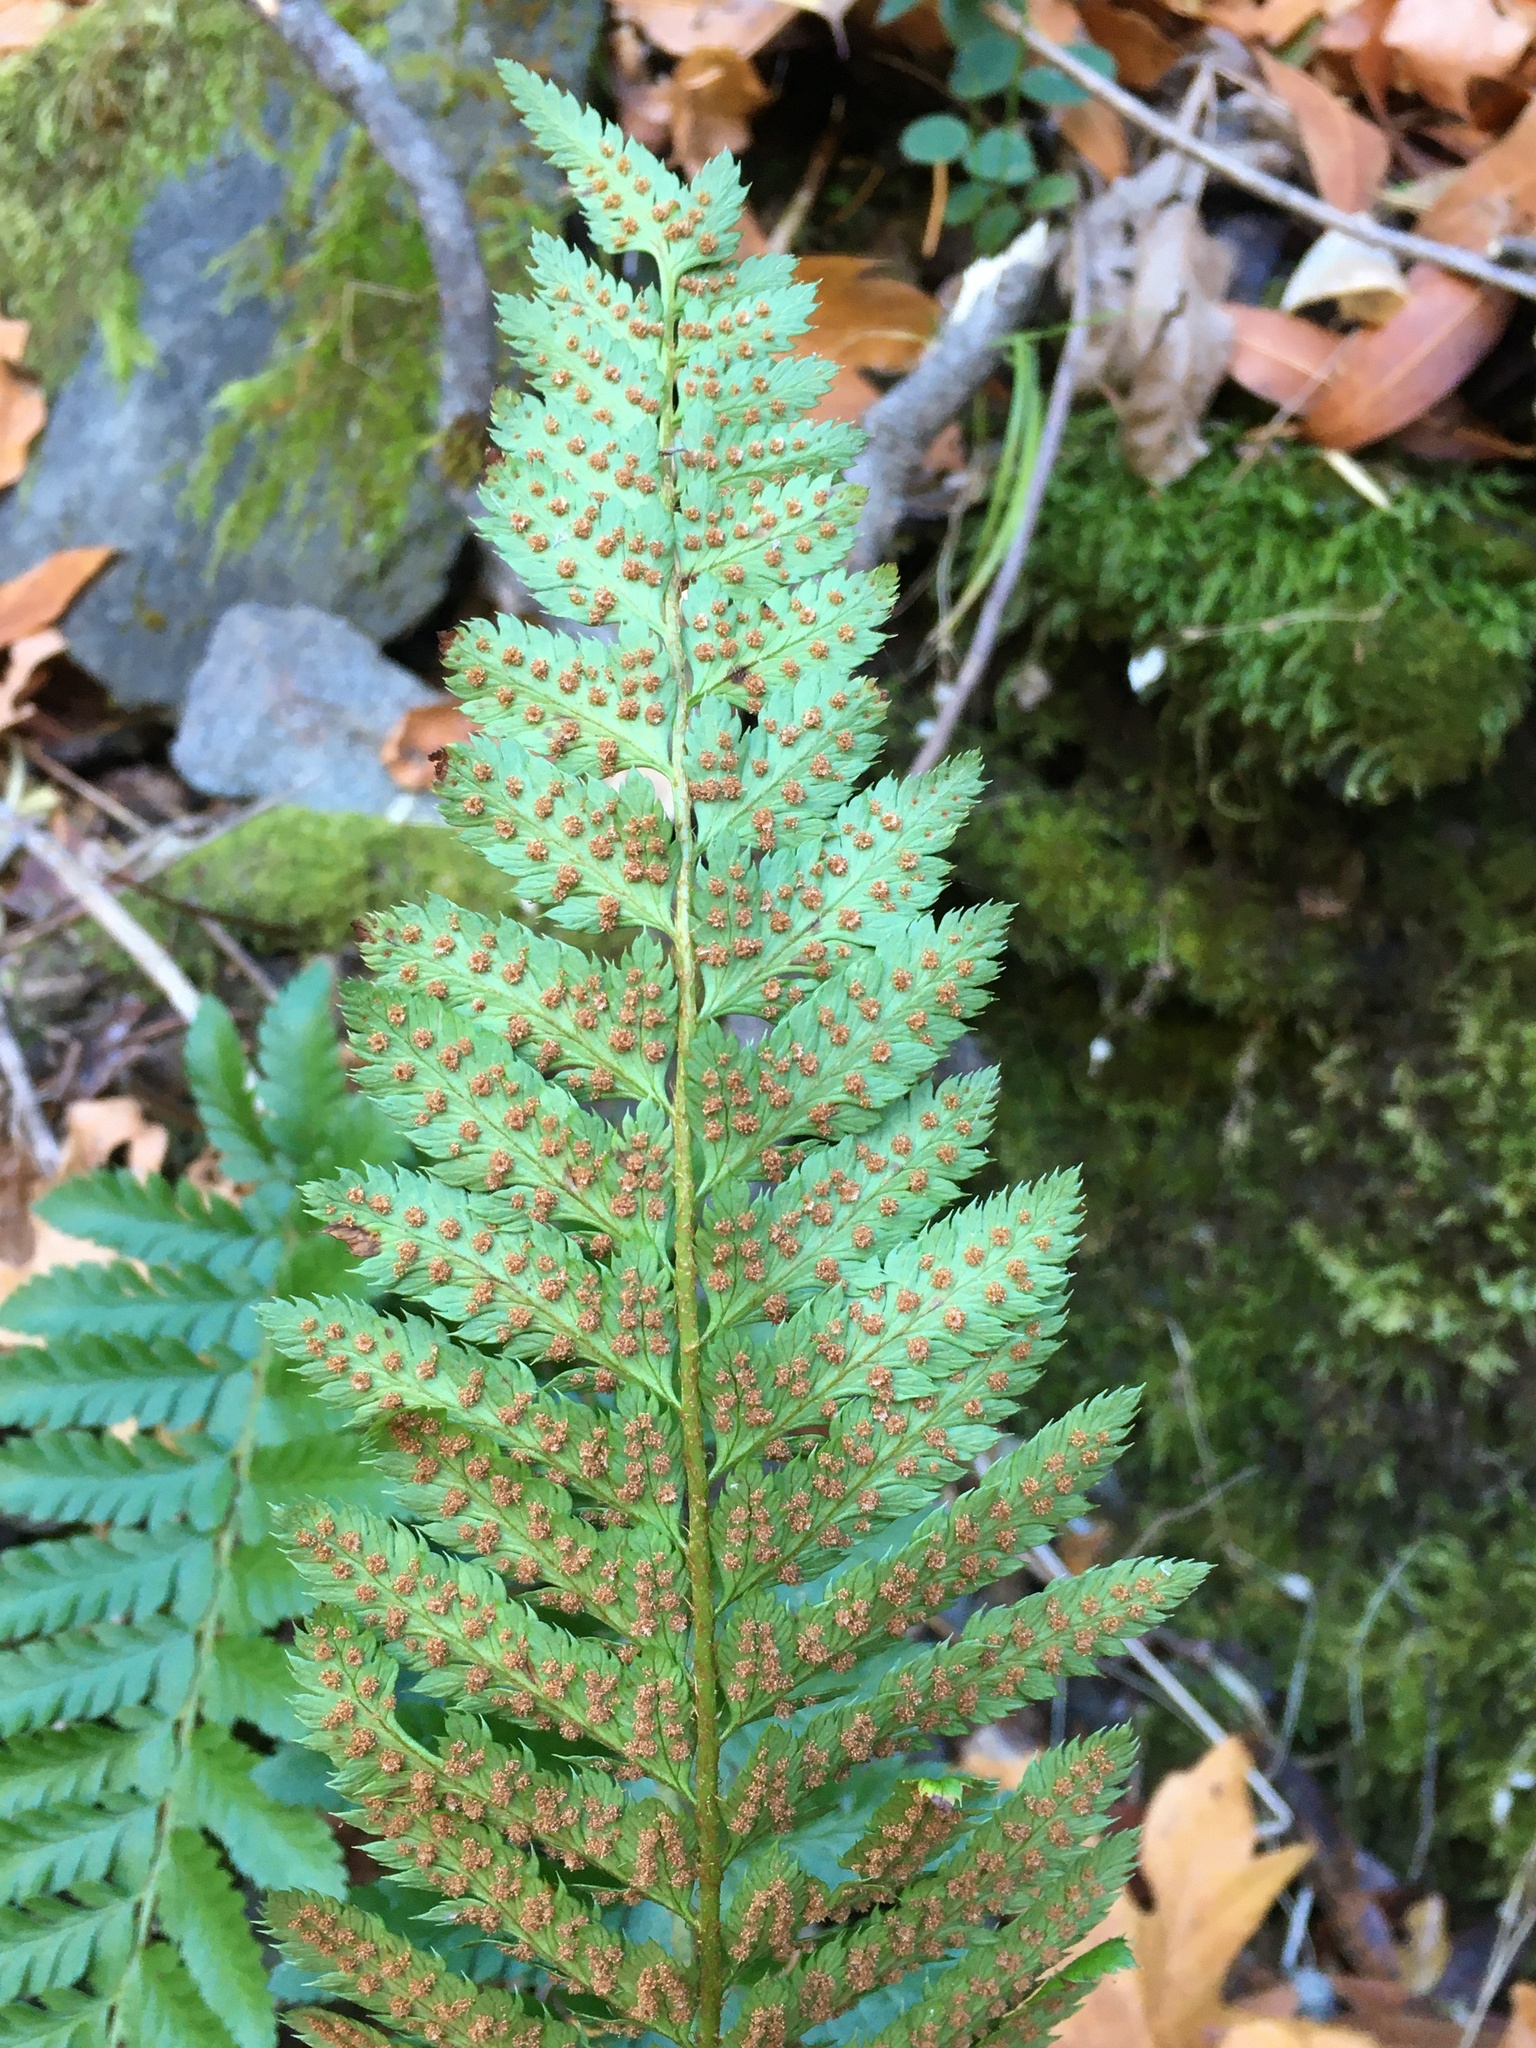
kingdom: Plantae
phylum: Tracheophyta
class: Polypodiopsida
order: Polypodiales
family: Dryopteridaceae
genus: Polystichum
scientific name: Polystichum californicum
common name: California sword fern
